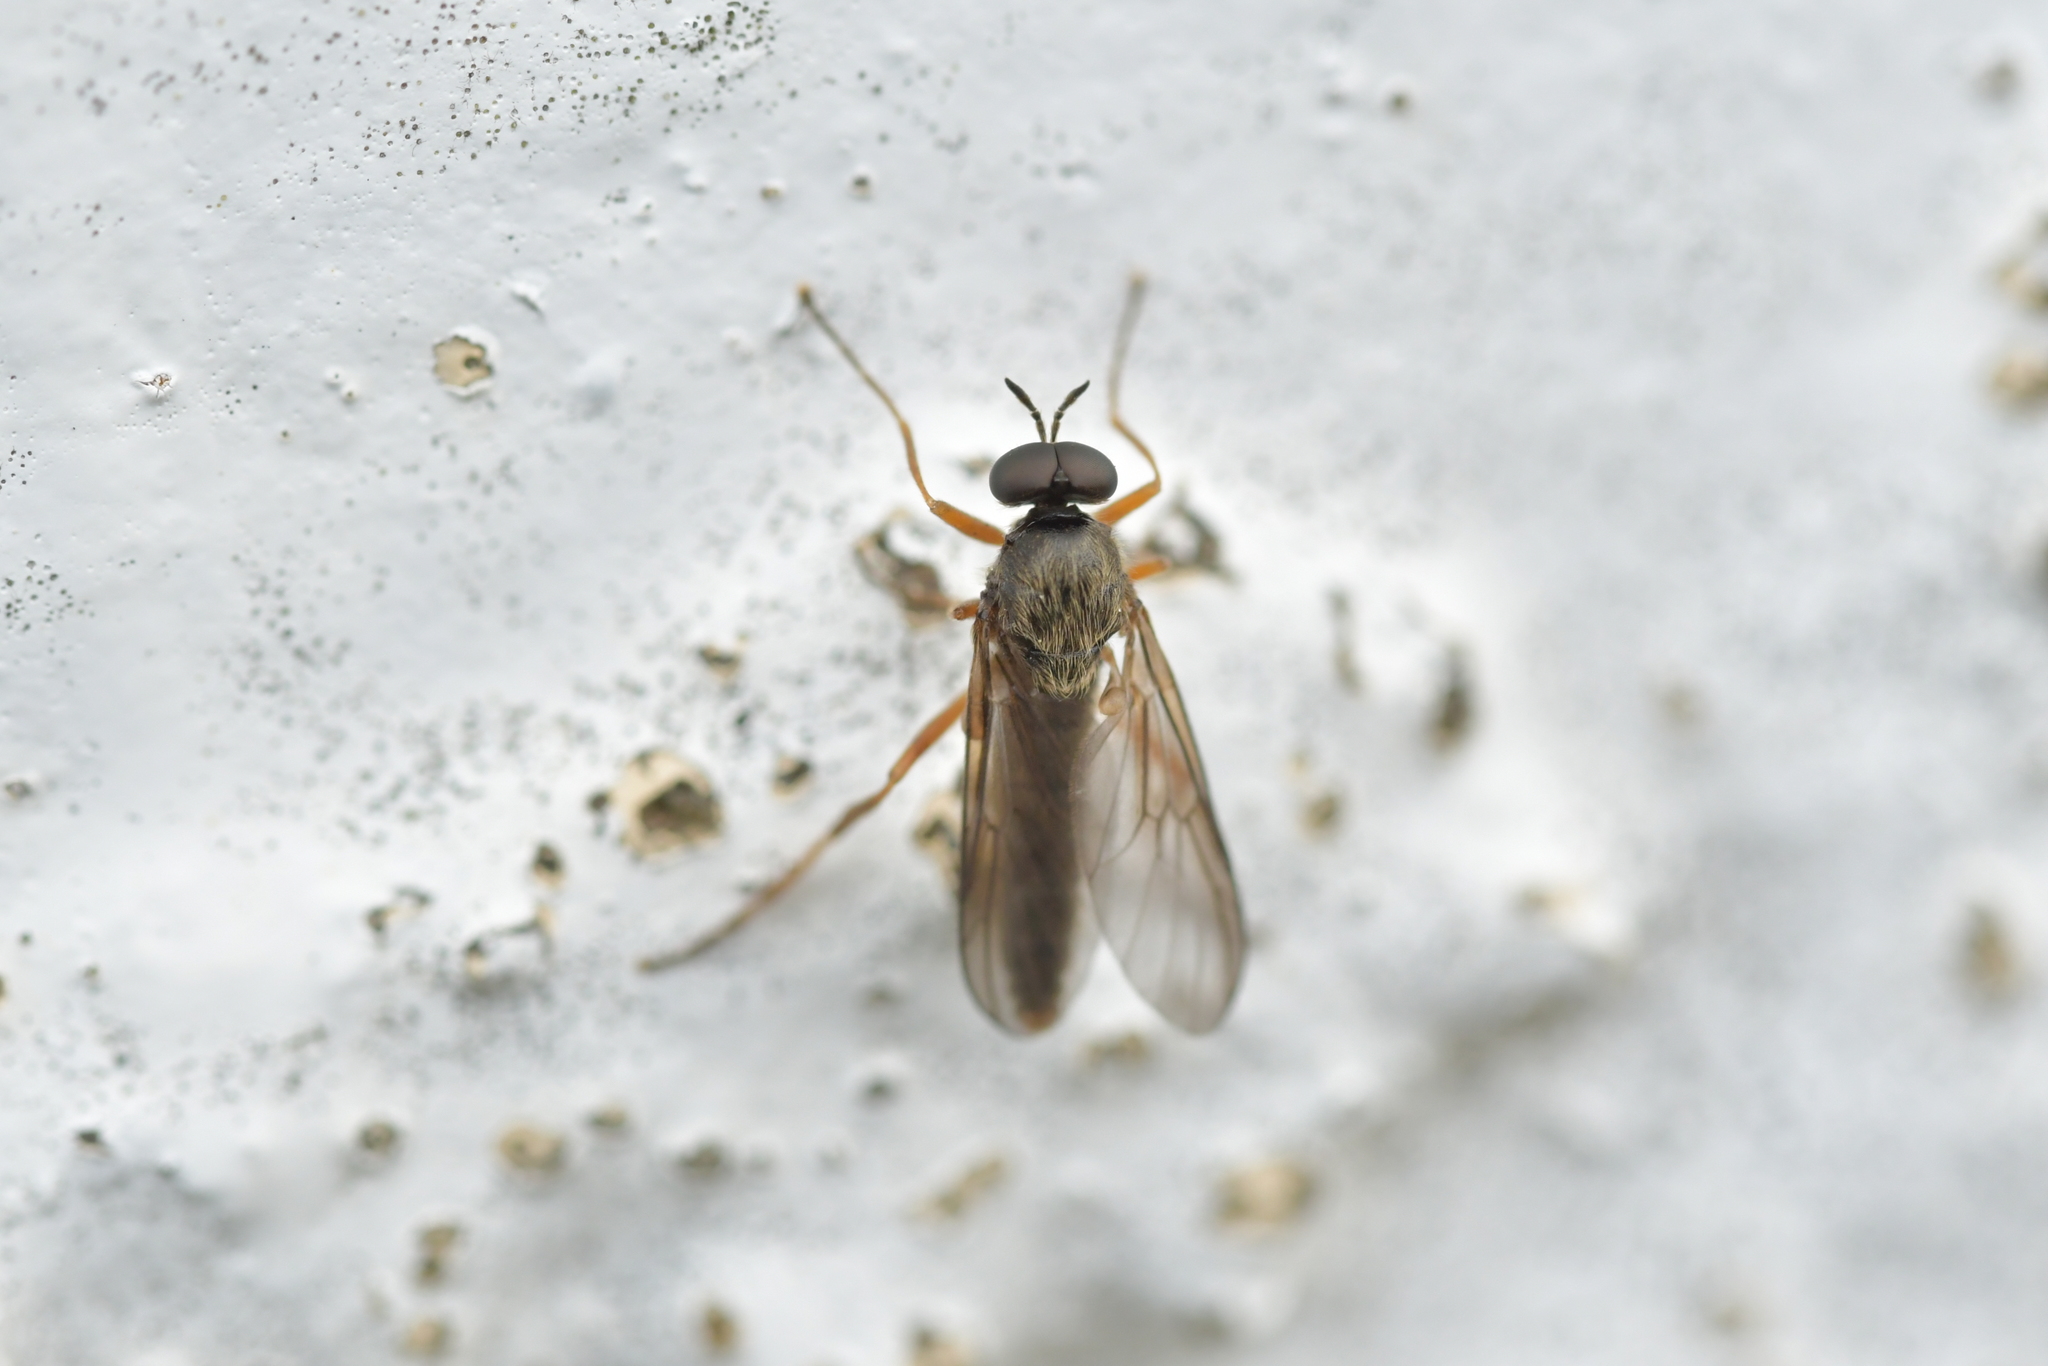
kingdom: Animalia
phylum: Arthropoda
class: Insecta
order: Diptera
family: Stratiomyidae
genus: Inopus
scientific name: Inopus rubriceps
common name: Soldier fly
